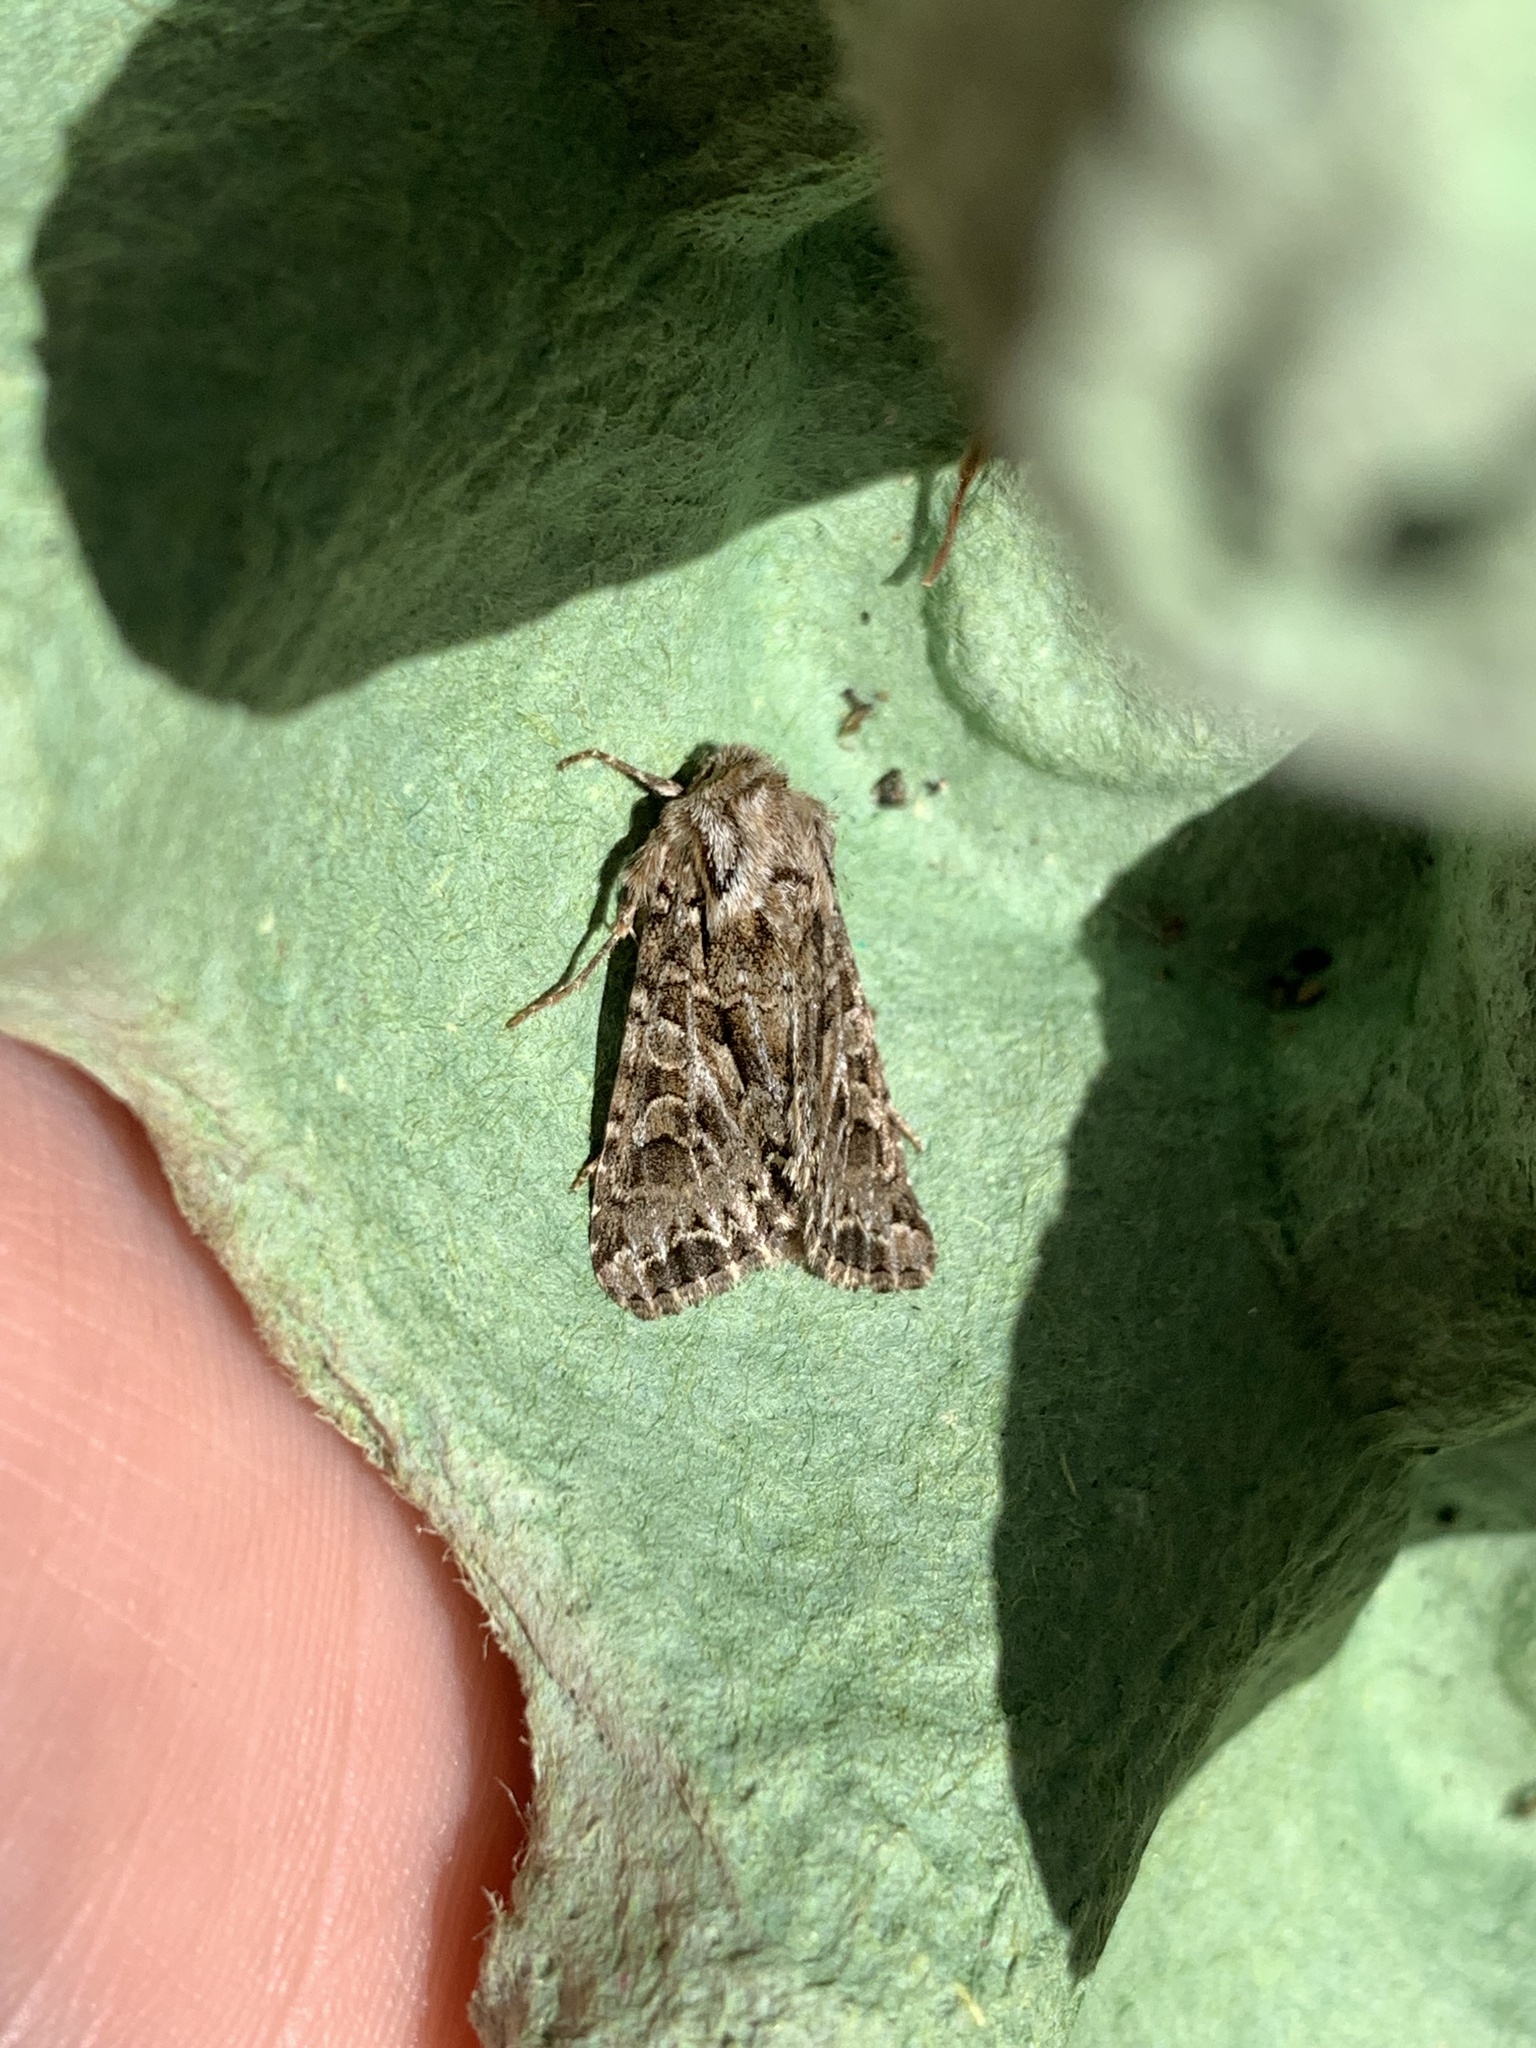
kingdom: Animalia
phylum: Arthropoda
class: Insecta
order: Lepidoptera
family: Noctuidae
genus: Hada
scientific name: Hada plebeja
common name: Shears
